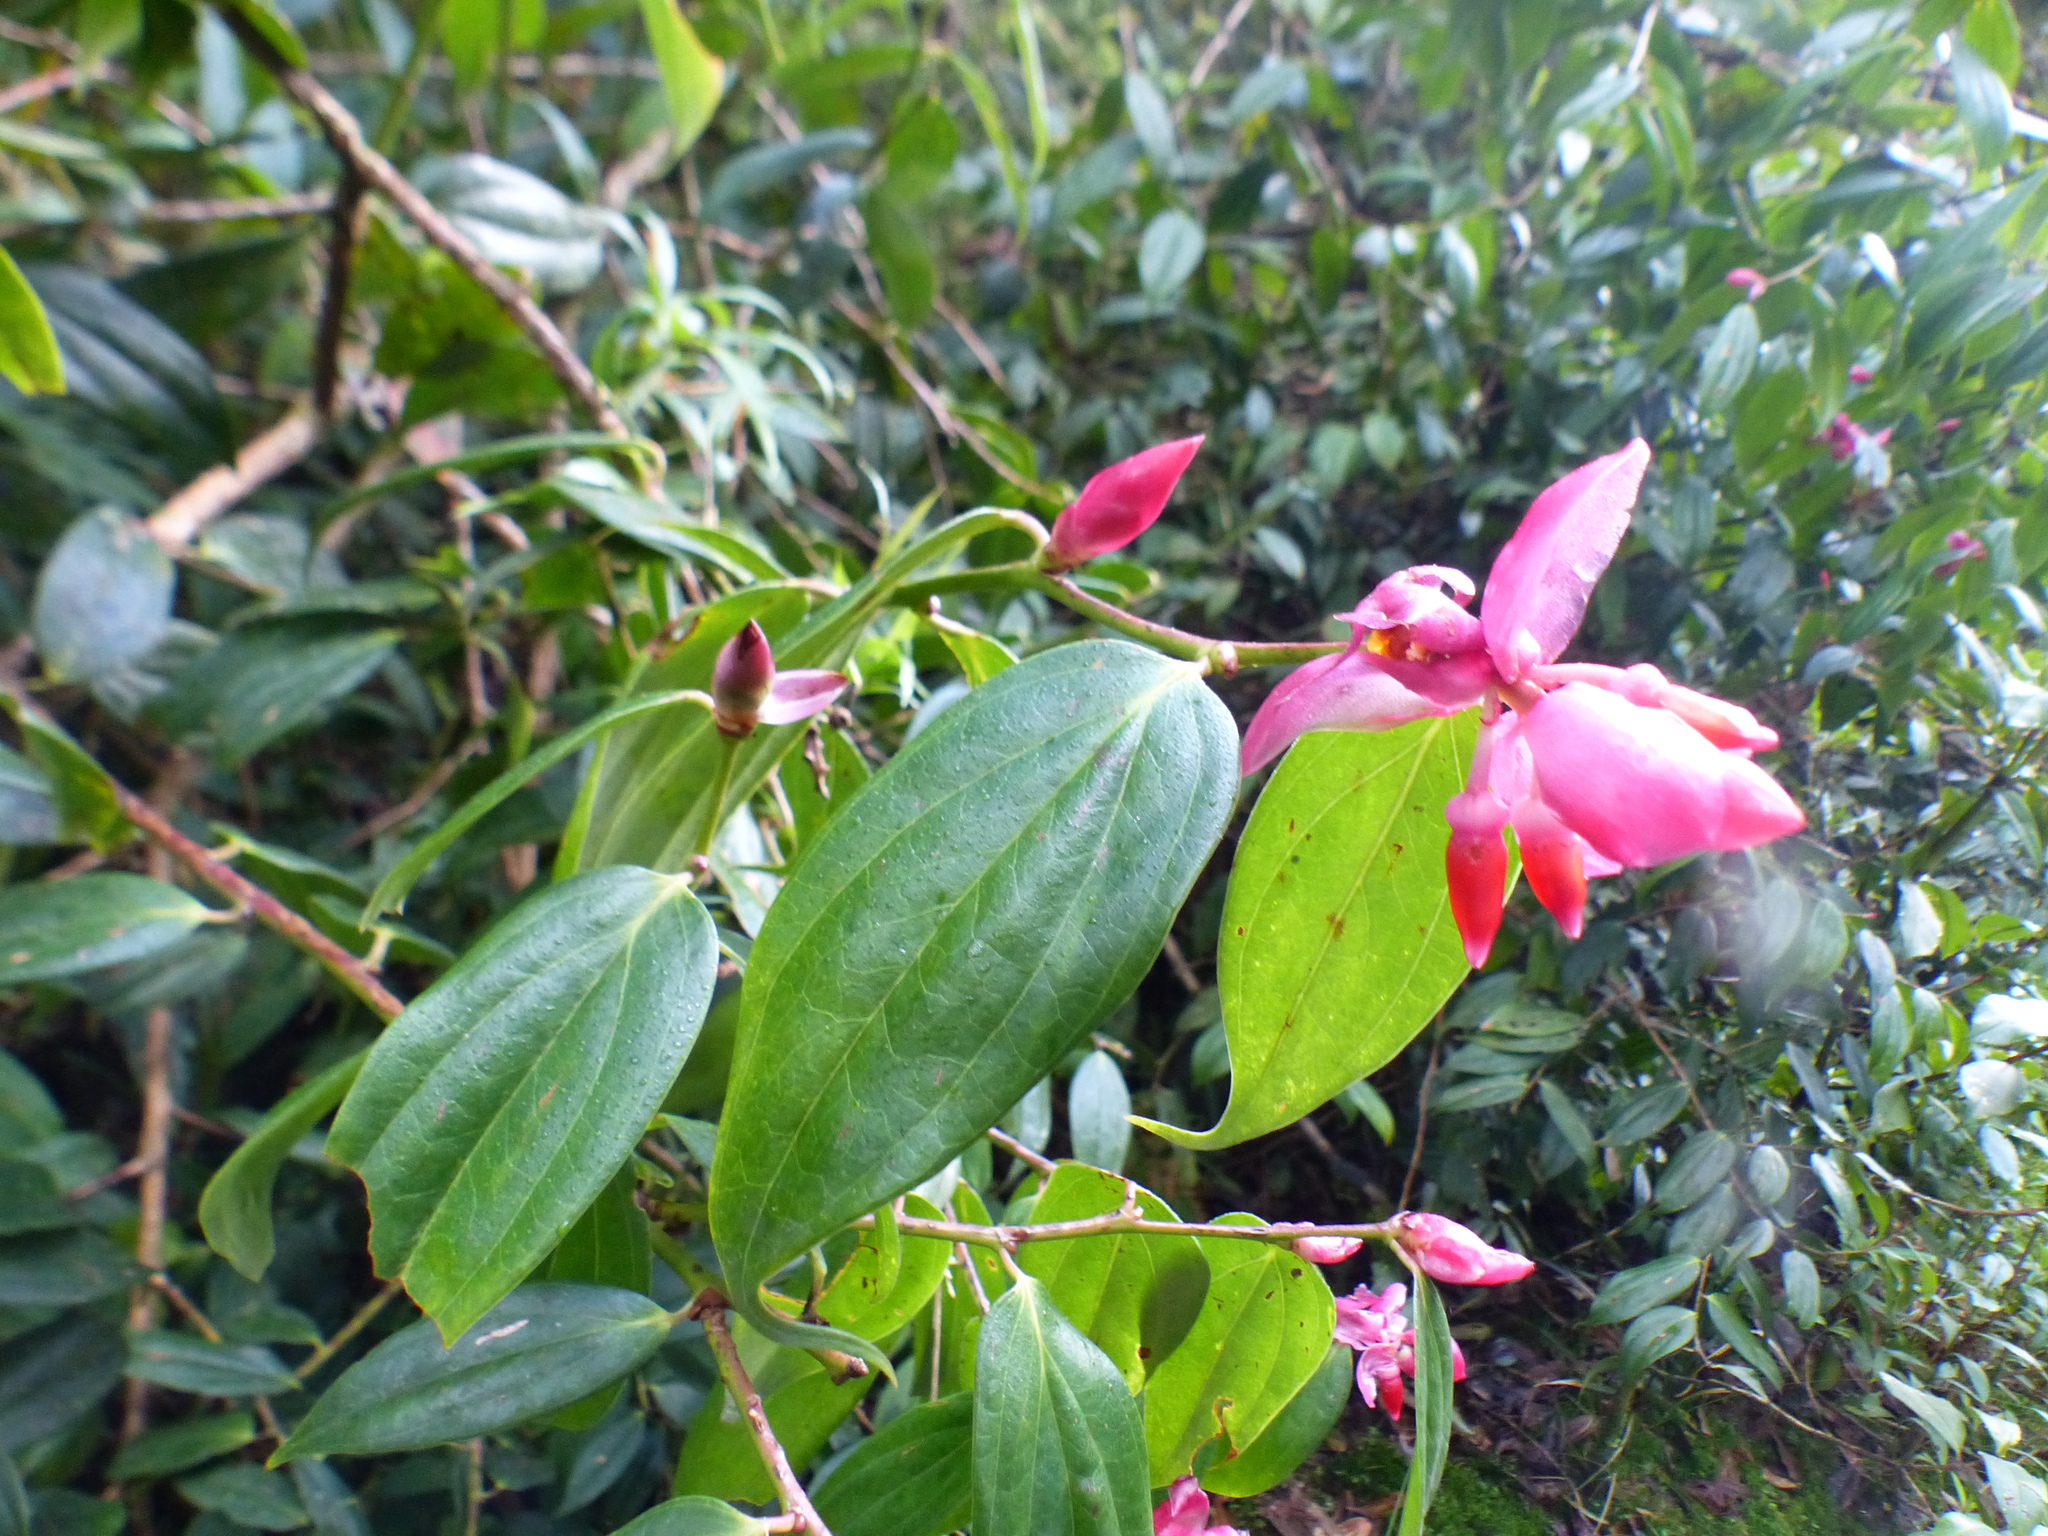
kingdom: Plantae
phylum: Tracheophyta
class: Magnoliopsida
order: Ericales
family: Ericaceae
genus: Cavendishia
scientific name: Cavendishia tarapotana
